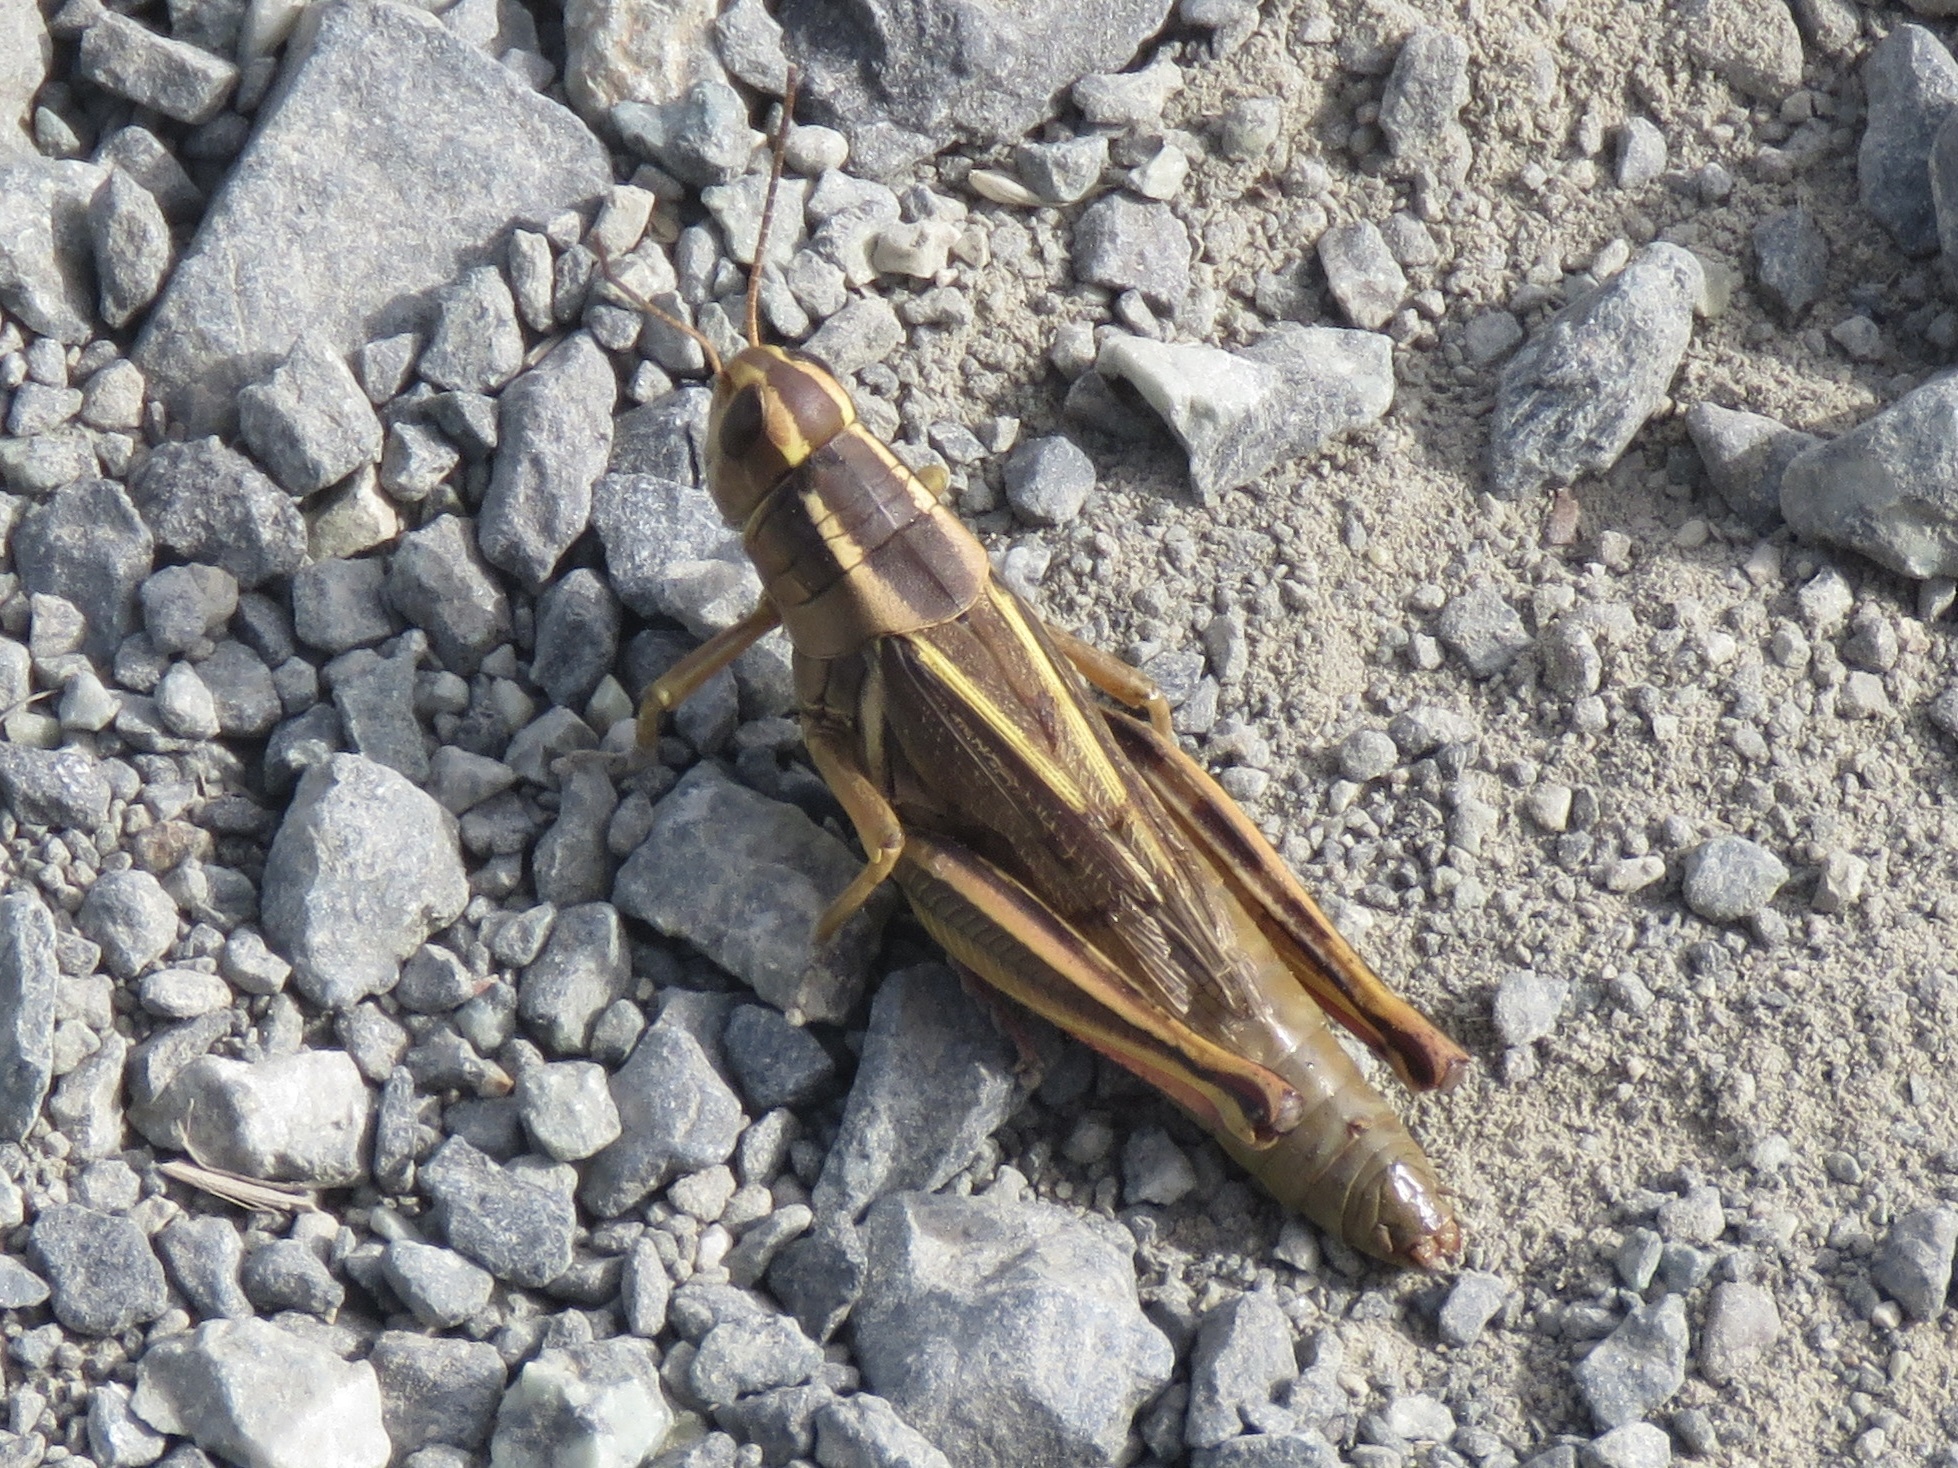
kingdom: Animalia
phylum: Arthropoda
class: Insecta
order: Orthoptera
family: Acrididae
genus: Melanoplus
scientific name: Melanoplus bivittatus
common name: Two-striped grasshopper
